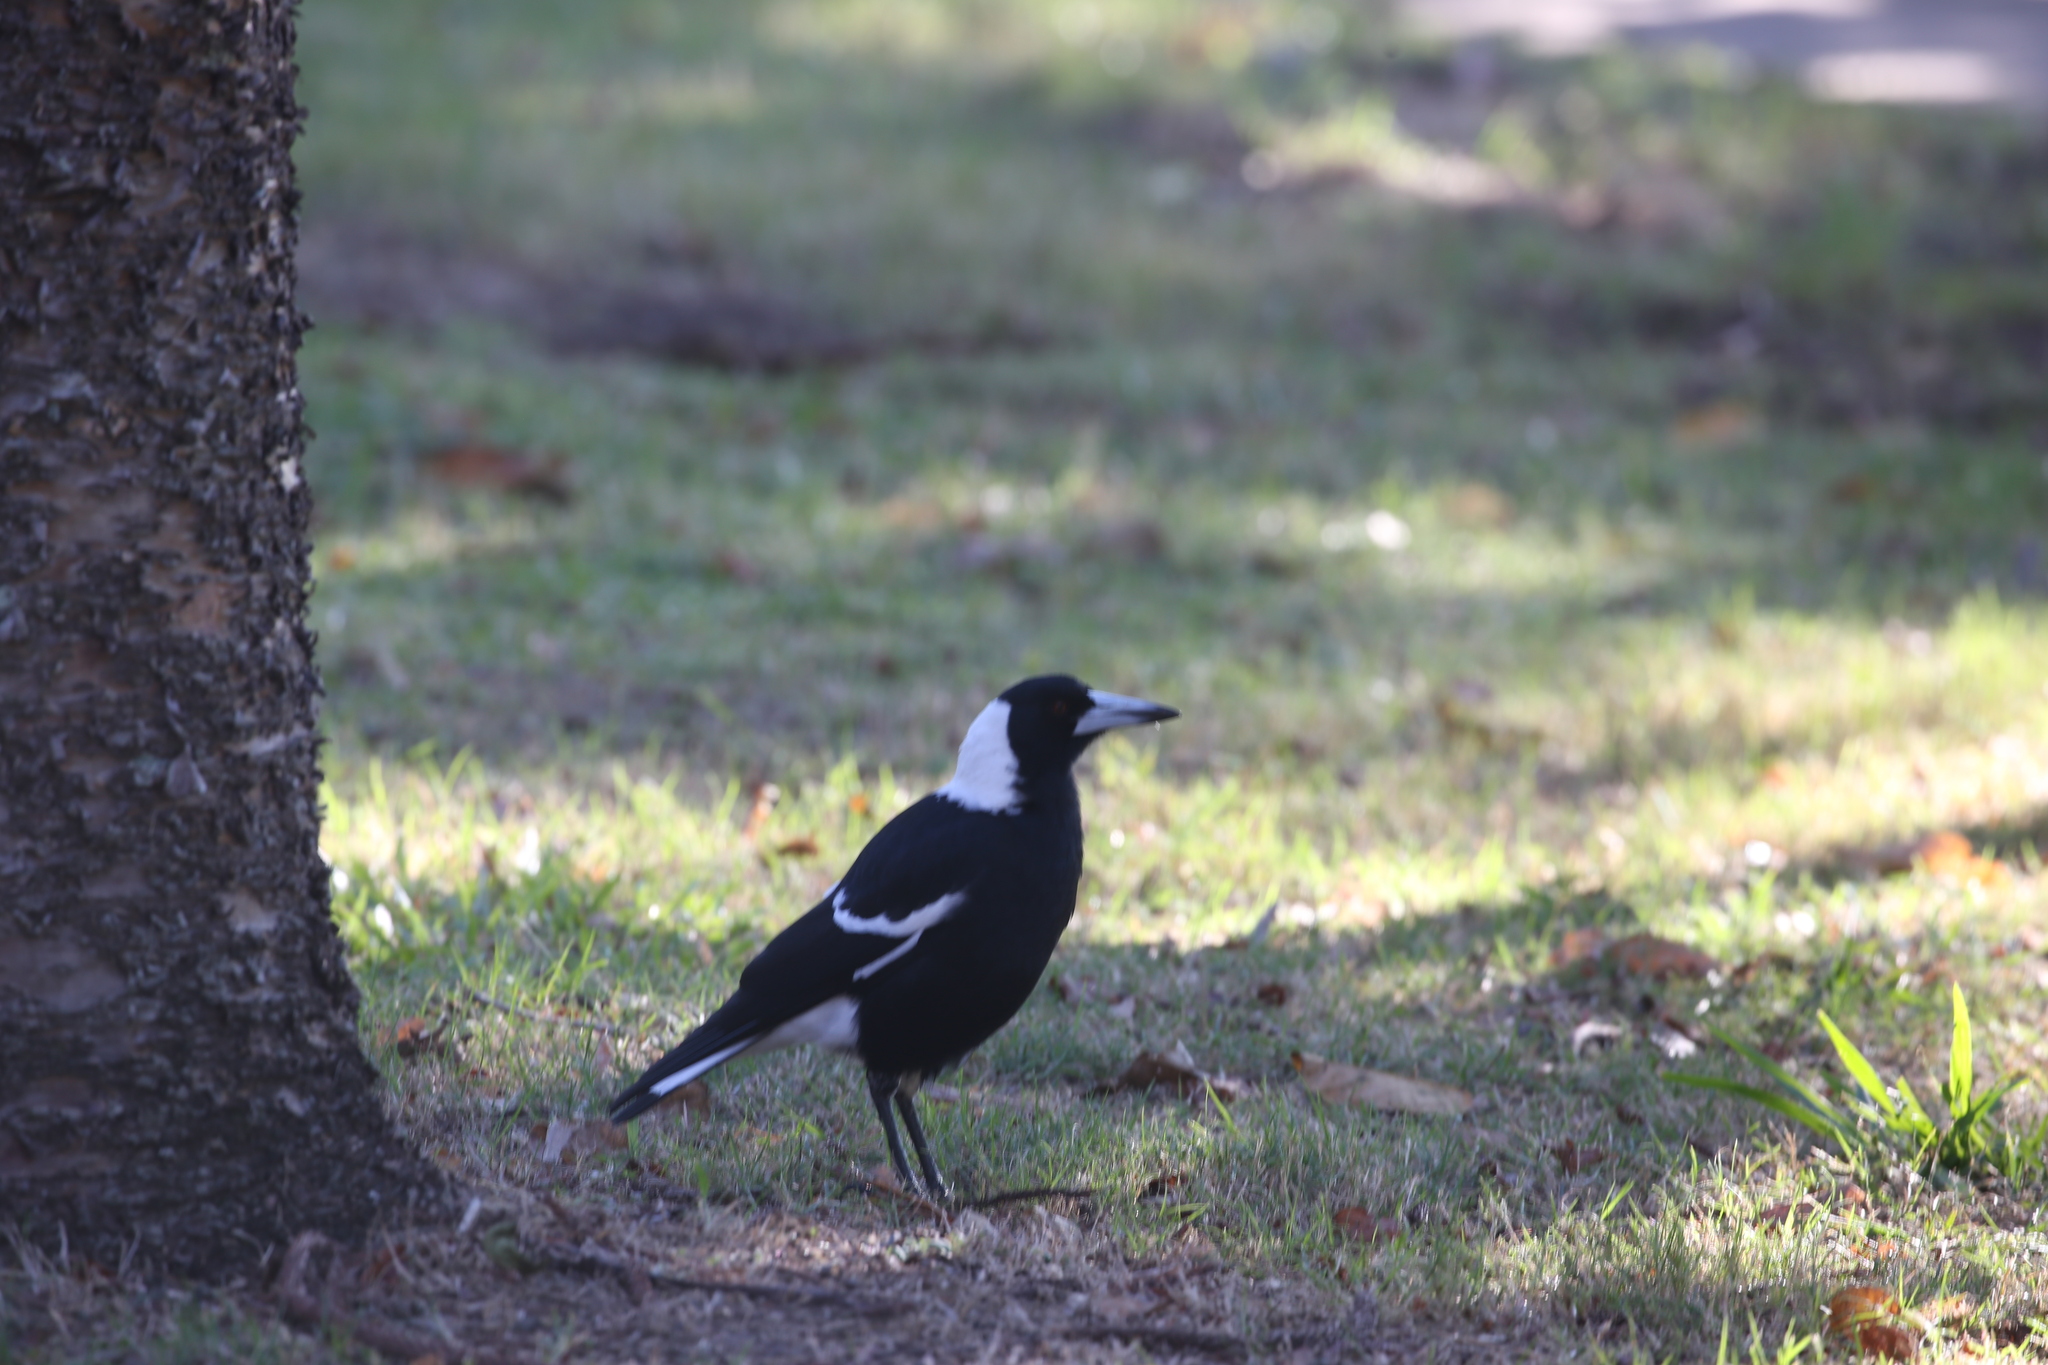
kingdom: Animalia
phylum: Chordata
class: Aves
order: Passeriformes
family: Cracticidae
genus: Gymnorhina
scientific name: Gymnorhina tibicen
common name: Australian magpie
